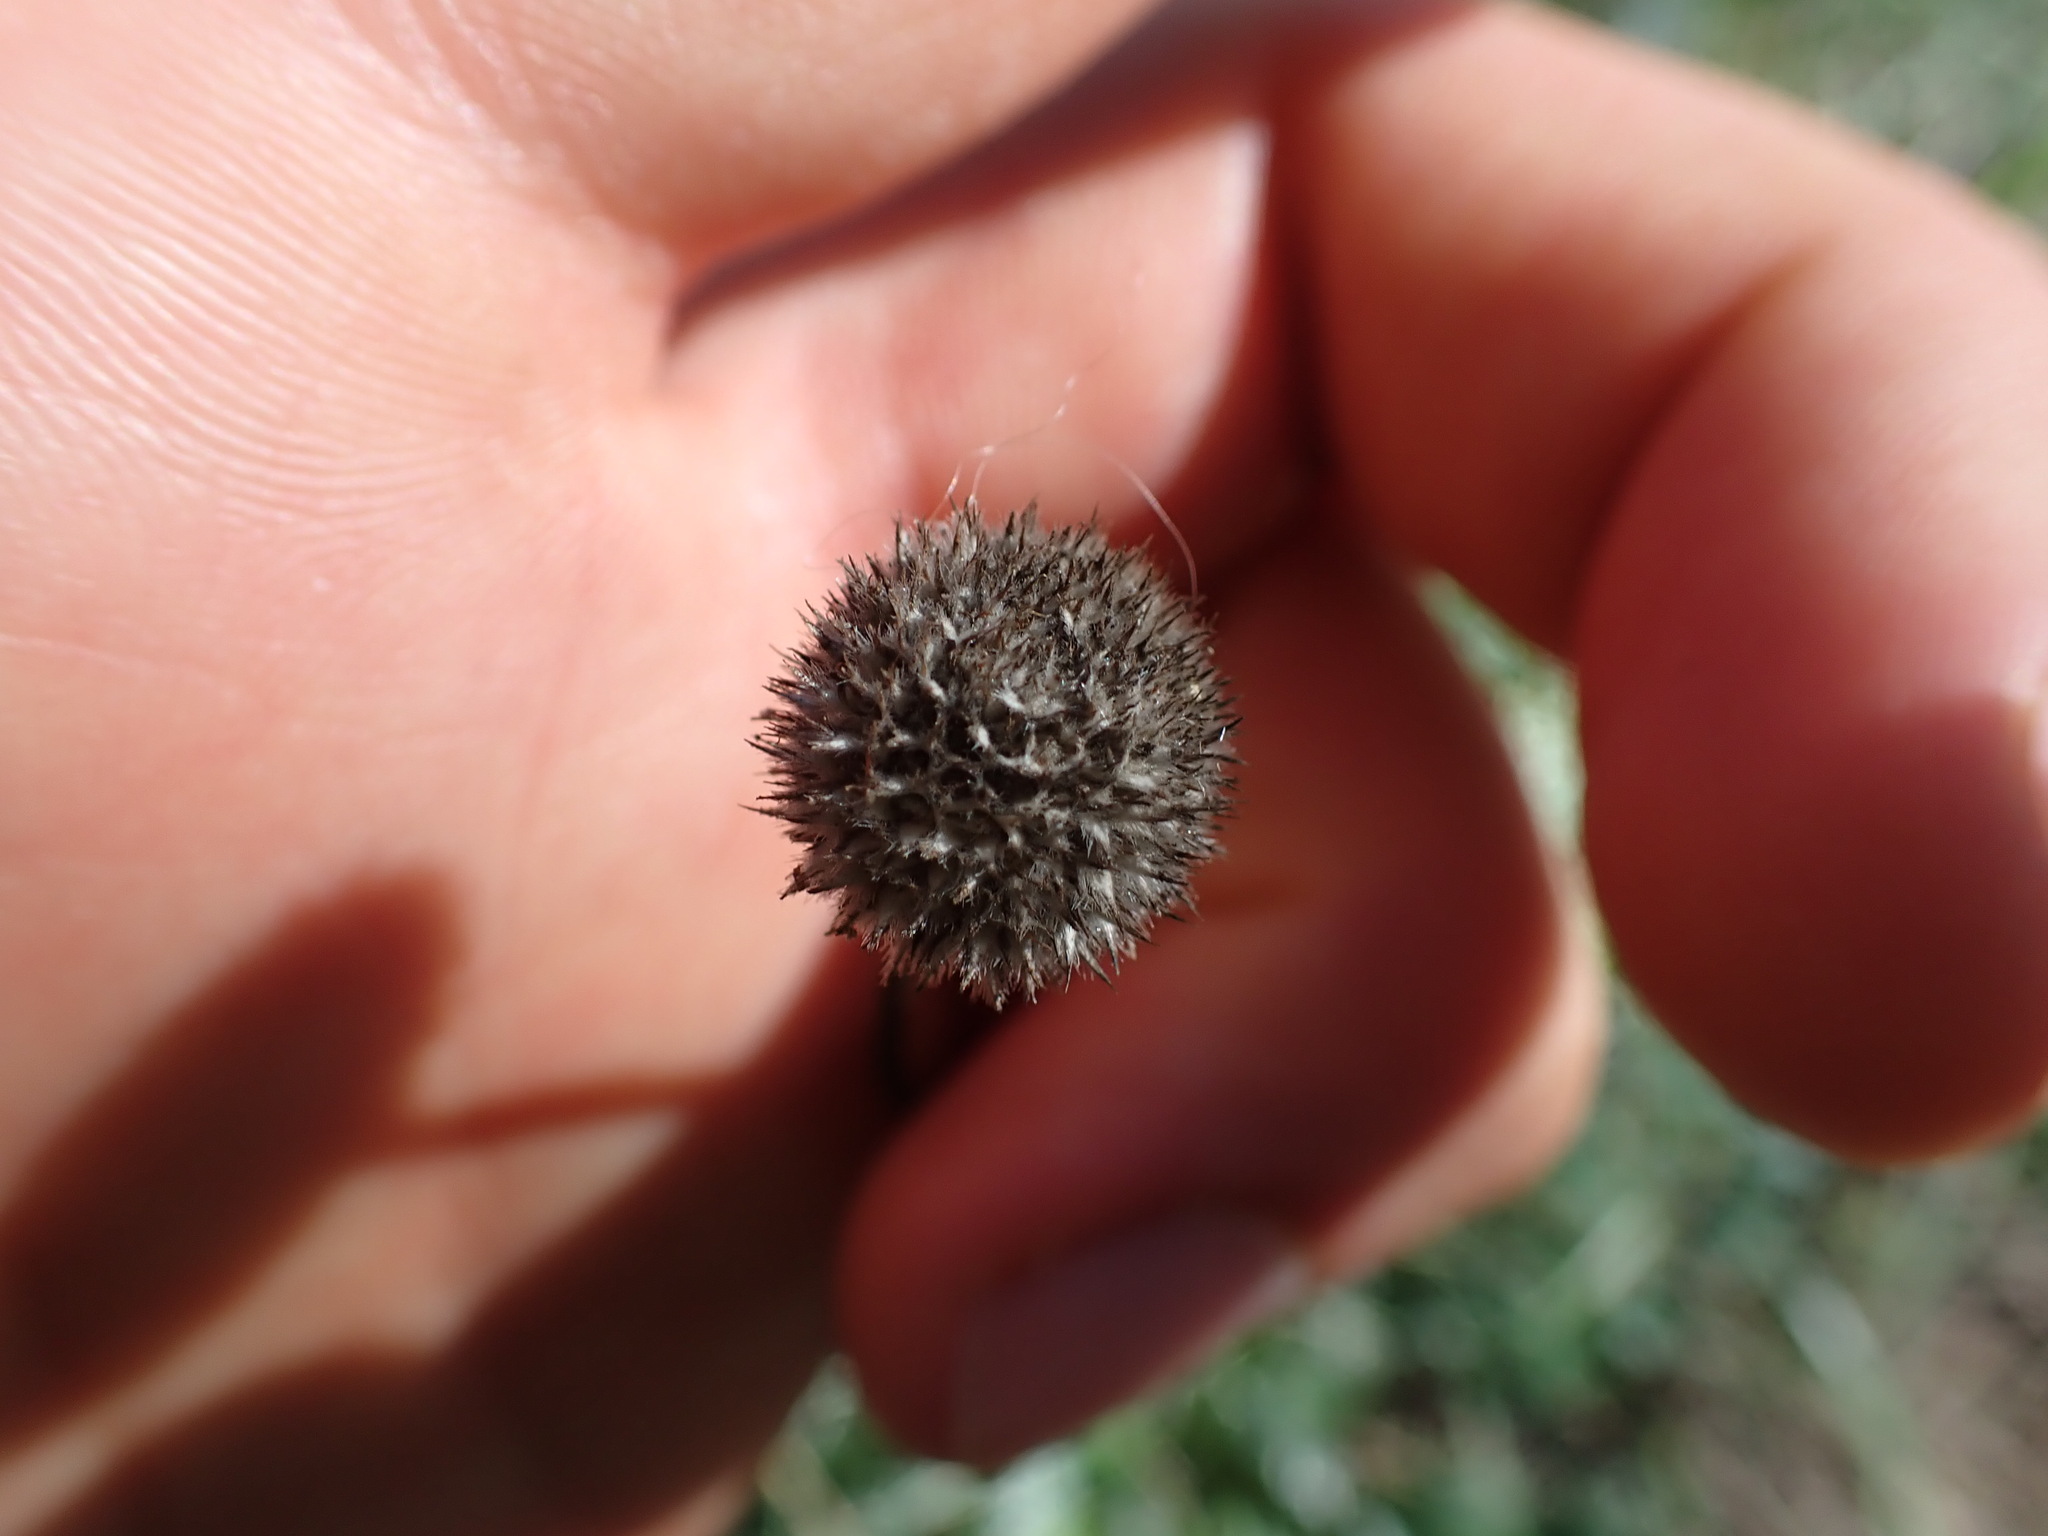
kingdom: Plantae
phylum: Tracheophyta
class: Magnoliopsida
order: Lamiales
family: Plantaginaceae
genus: Globularia
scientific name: Globularia bisnagarica
